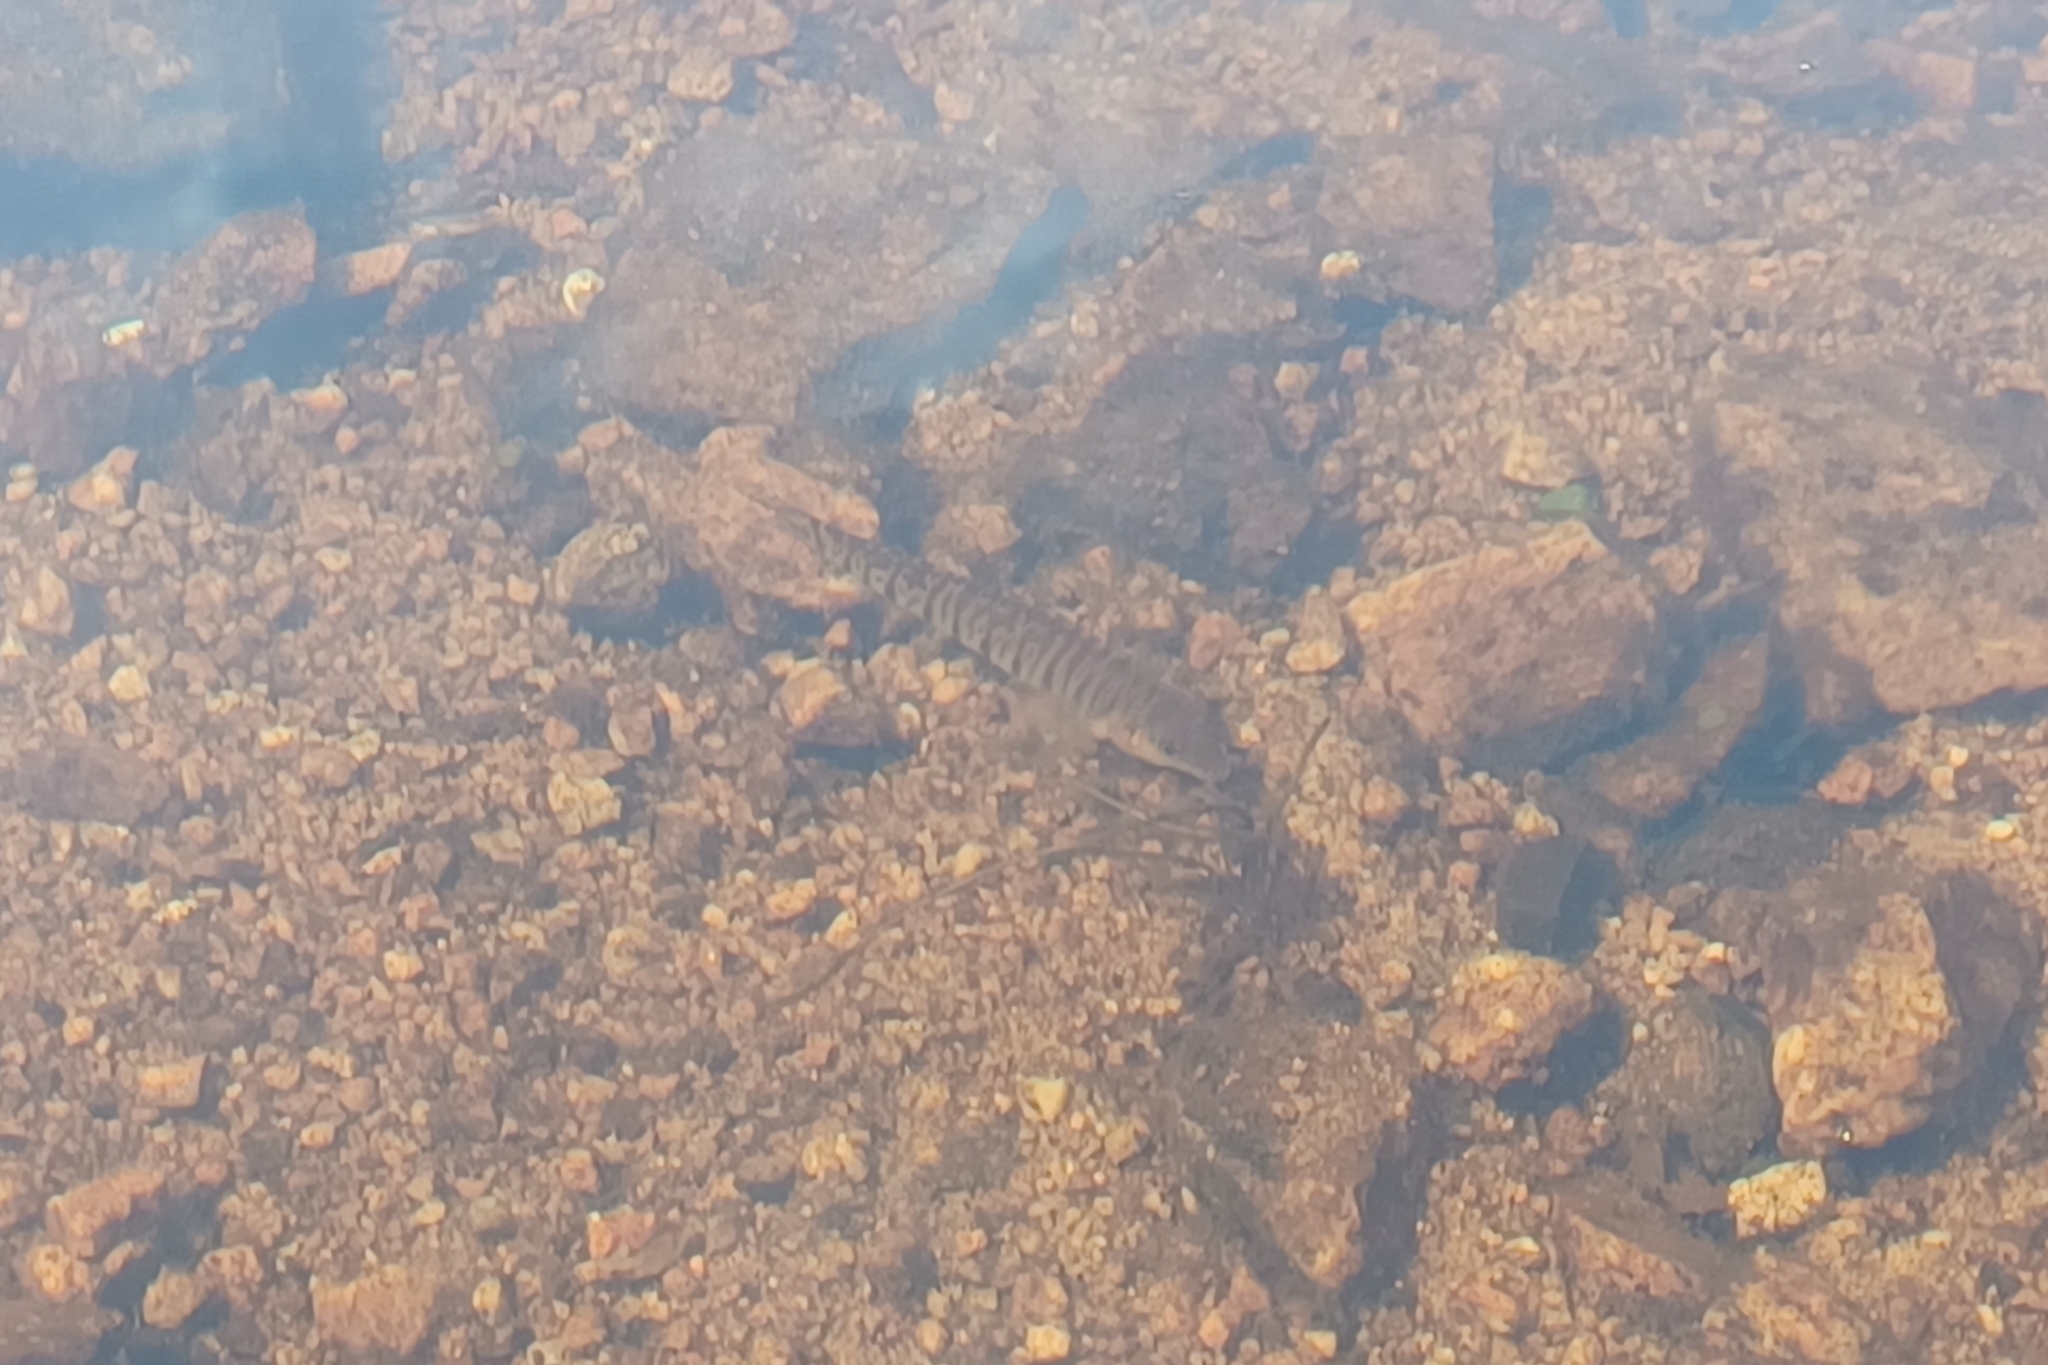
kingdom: Animalia
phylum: Chordata
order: Perciformes
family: Percidae
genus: Percina
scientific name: Percina caprodes
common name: Logperch
